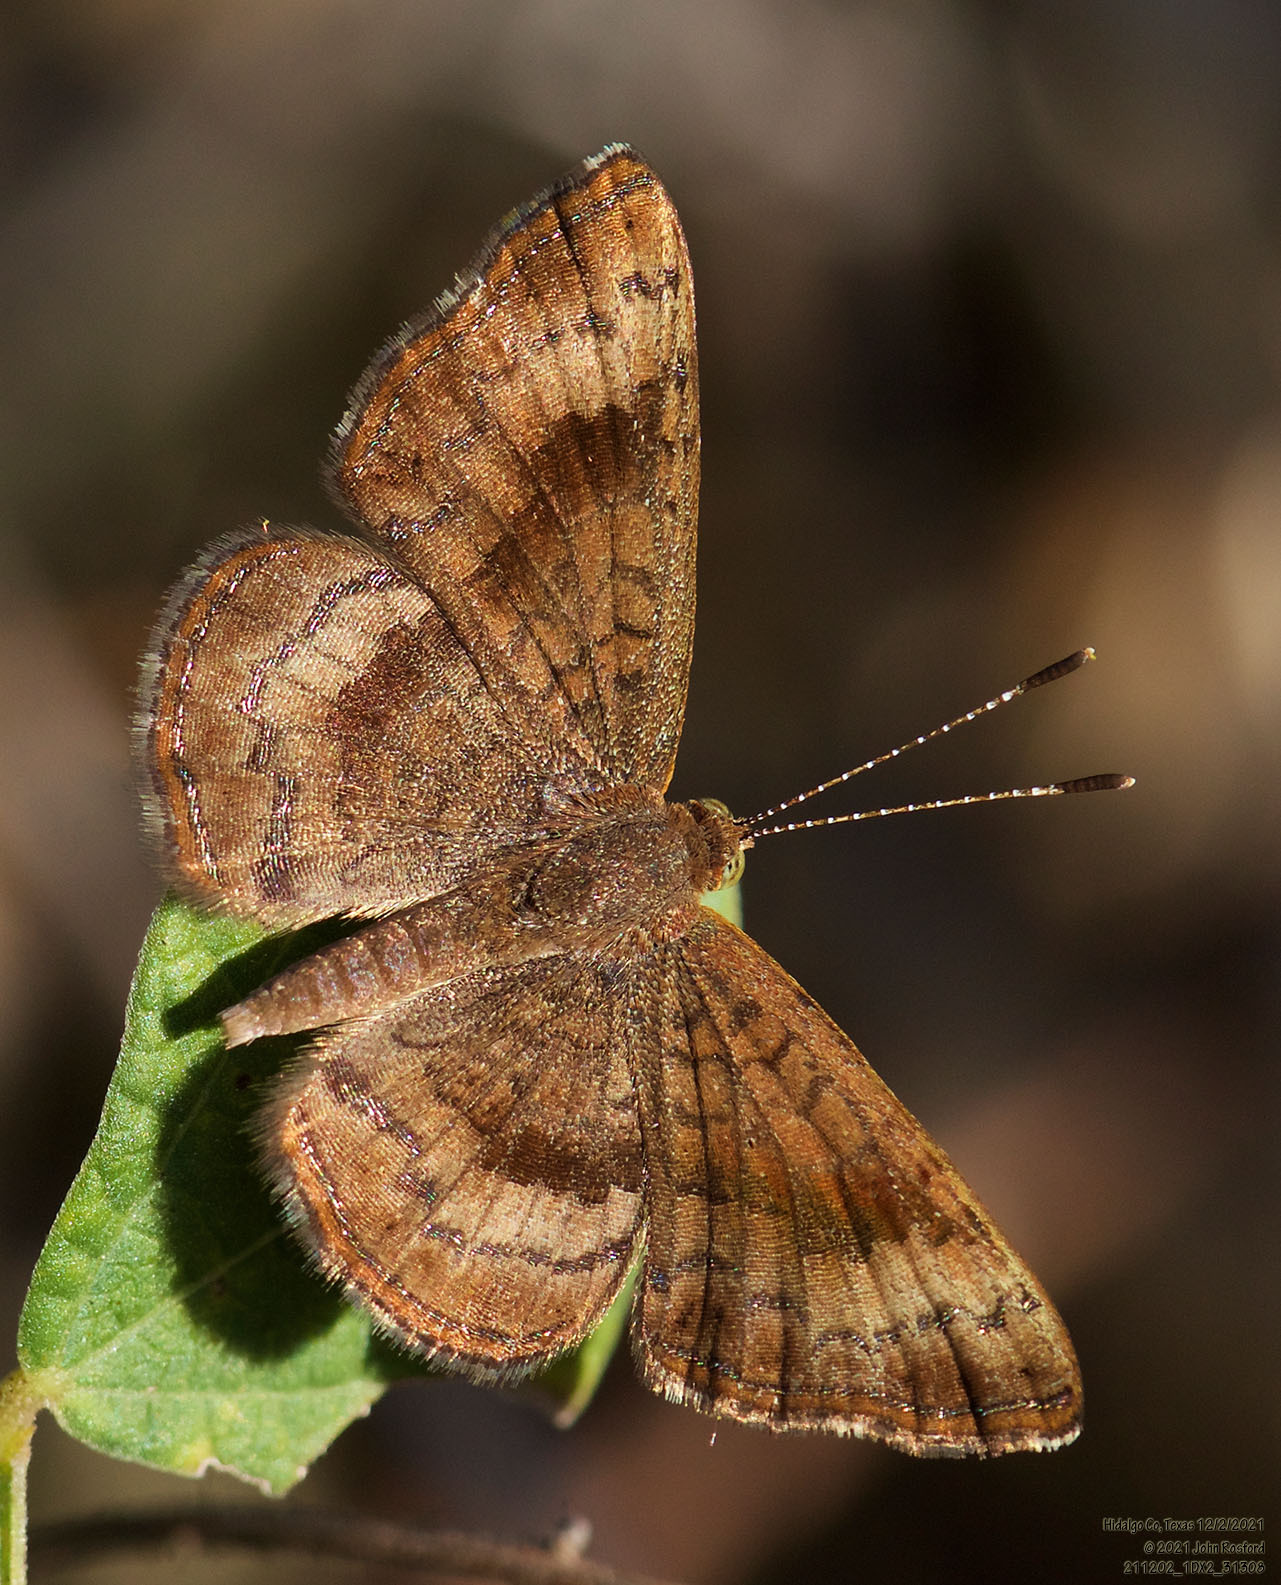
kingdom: Animalia
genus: Calephelis
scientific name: Calephelis nemesis
